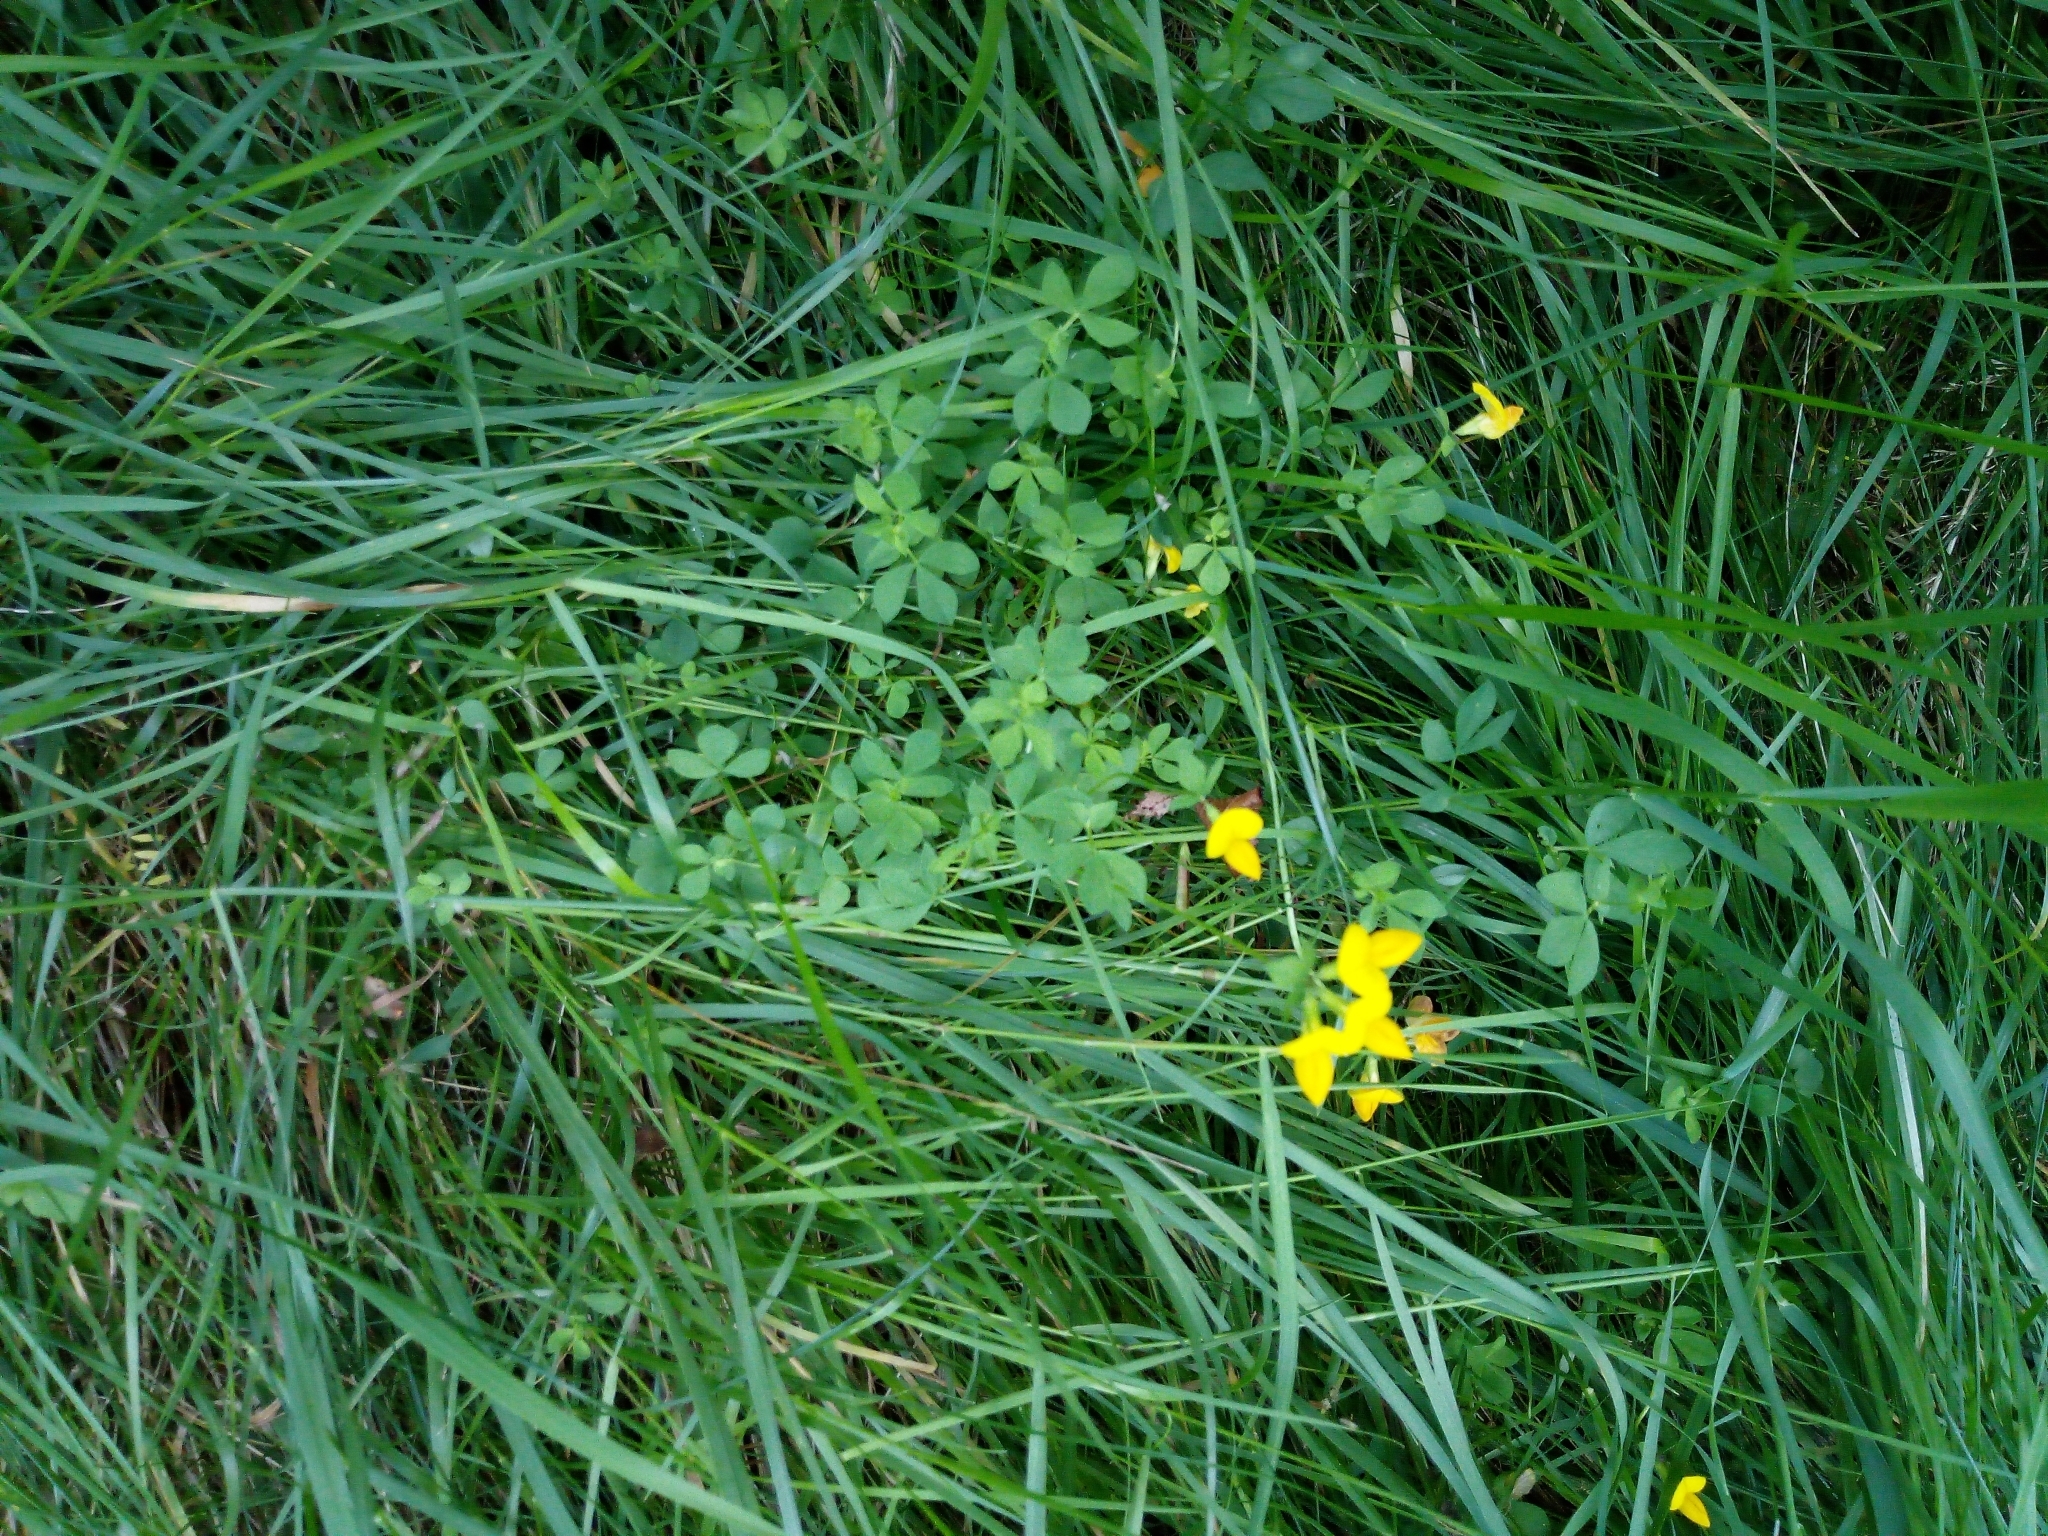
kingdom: Plantae
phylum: Tracheophyta
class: Magnoliopsida
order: Fabales
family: Fabaceae
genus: Lotus
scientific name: Lotus corniculatus
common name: Common bird's-foot-trefoil
